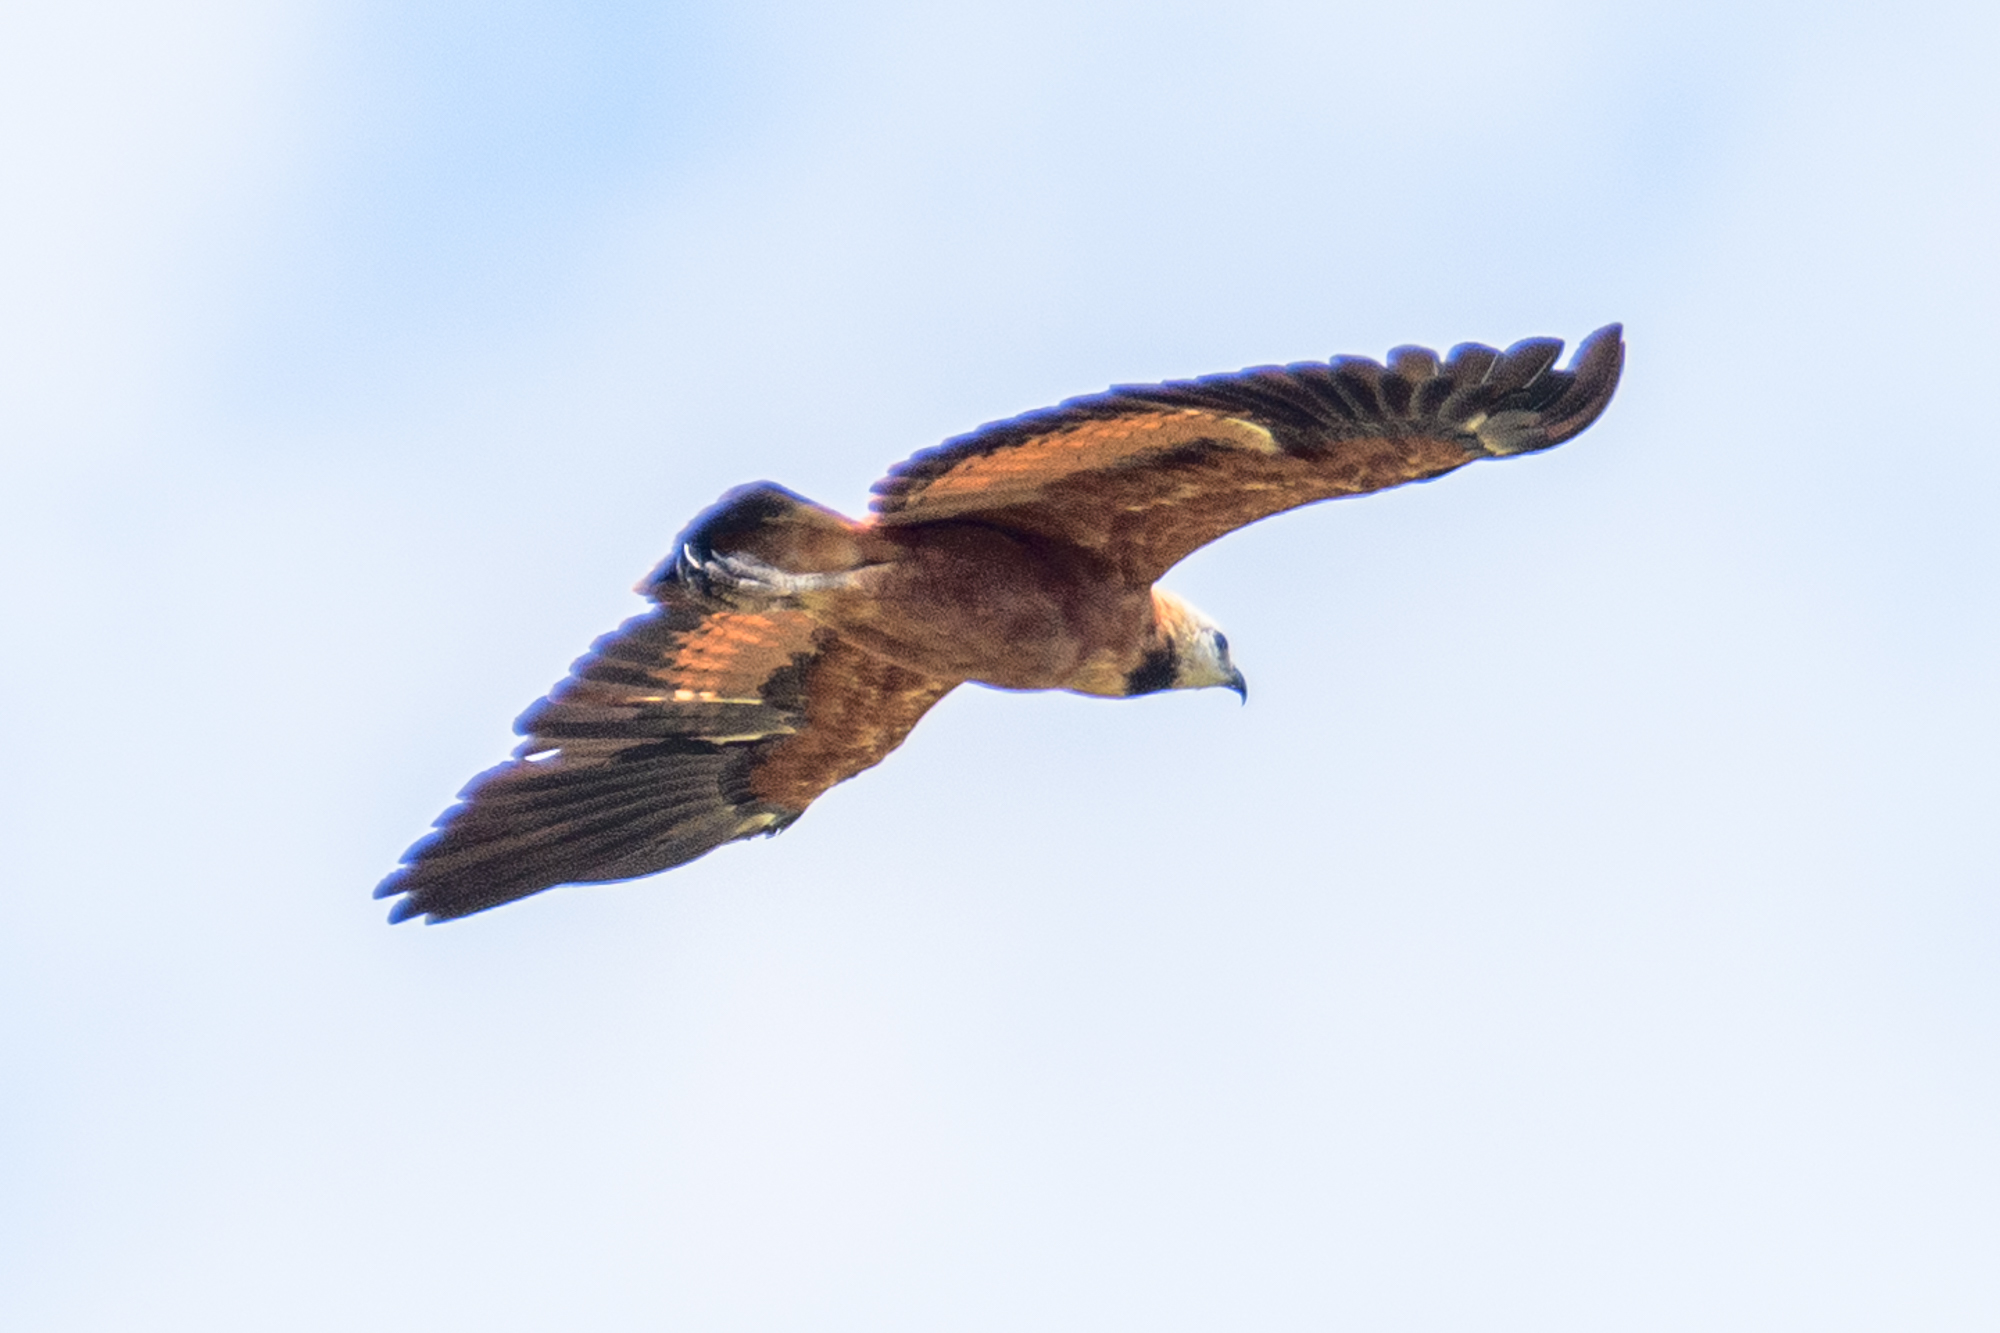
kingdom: Animalia
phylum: Chordata
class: Aves
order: Accipitriformes
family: Accipitridae
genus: Busarellus
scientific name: Busarellus nigricollis
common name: Black-collared hawk
